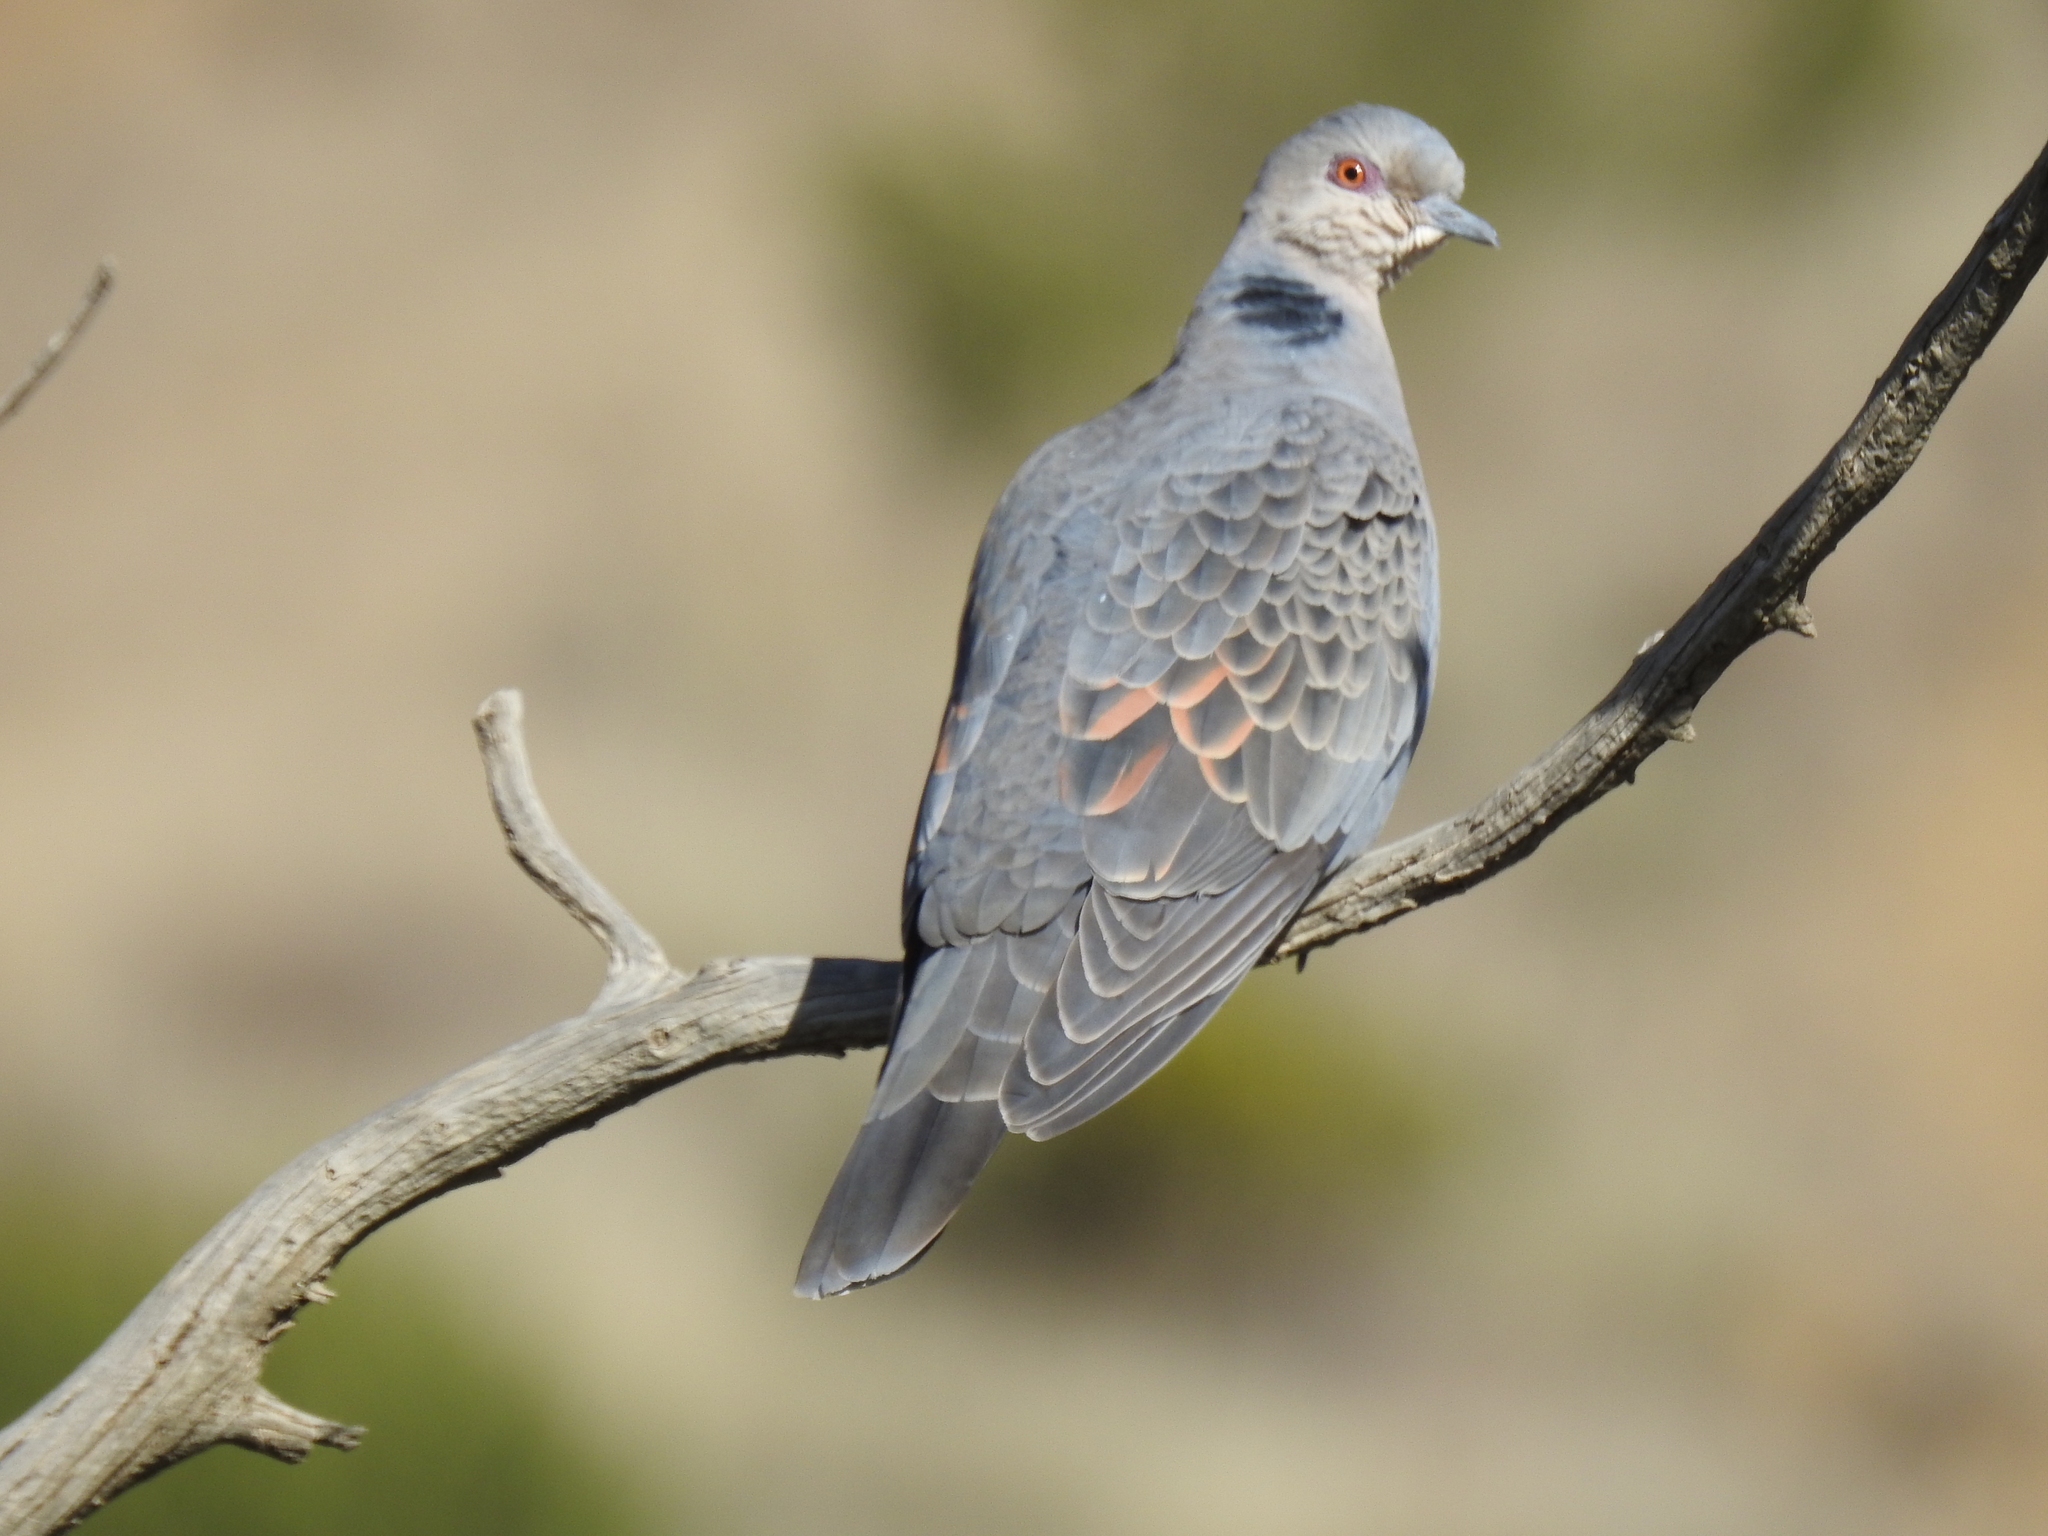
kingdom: Animalia
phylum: Chordata
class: Aves
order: Columbiformes
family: Columbidae
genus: Streptopelia
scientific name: Streptopelia lugens
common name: Dusky turtle dove
